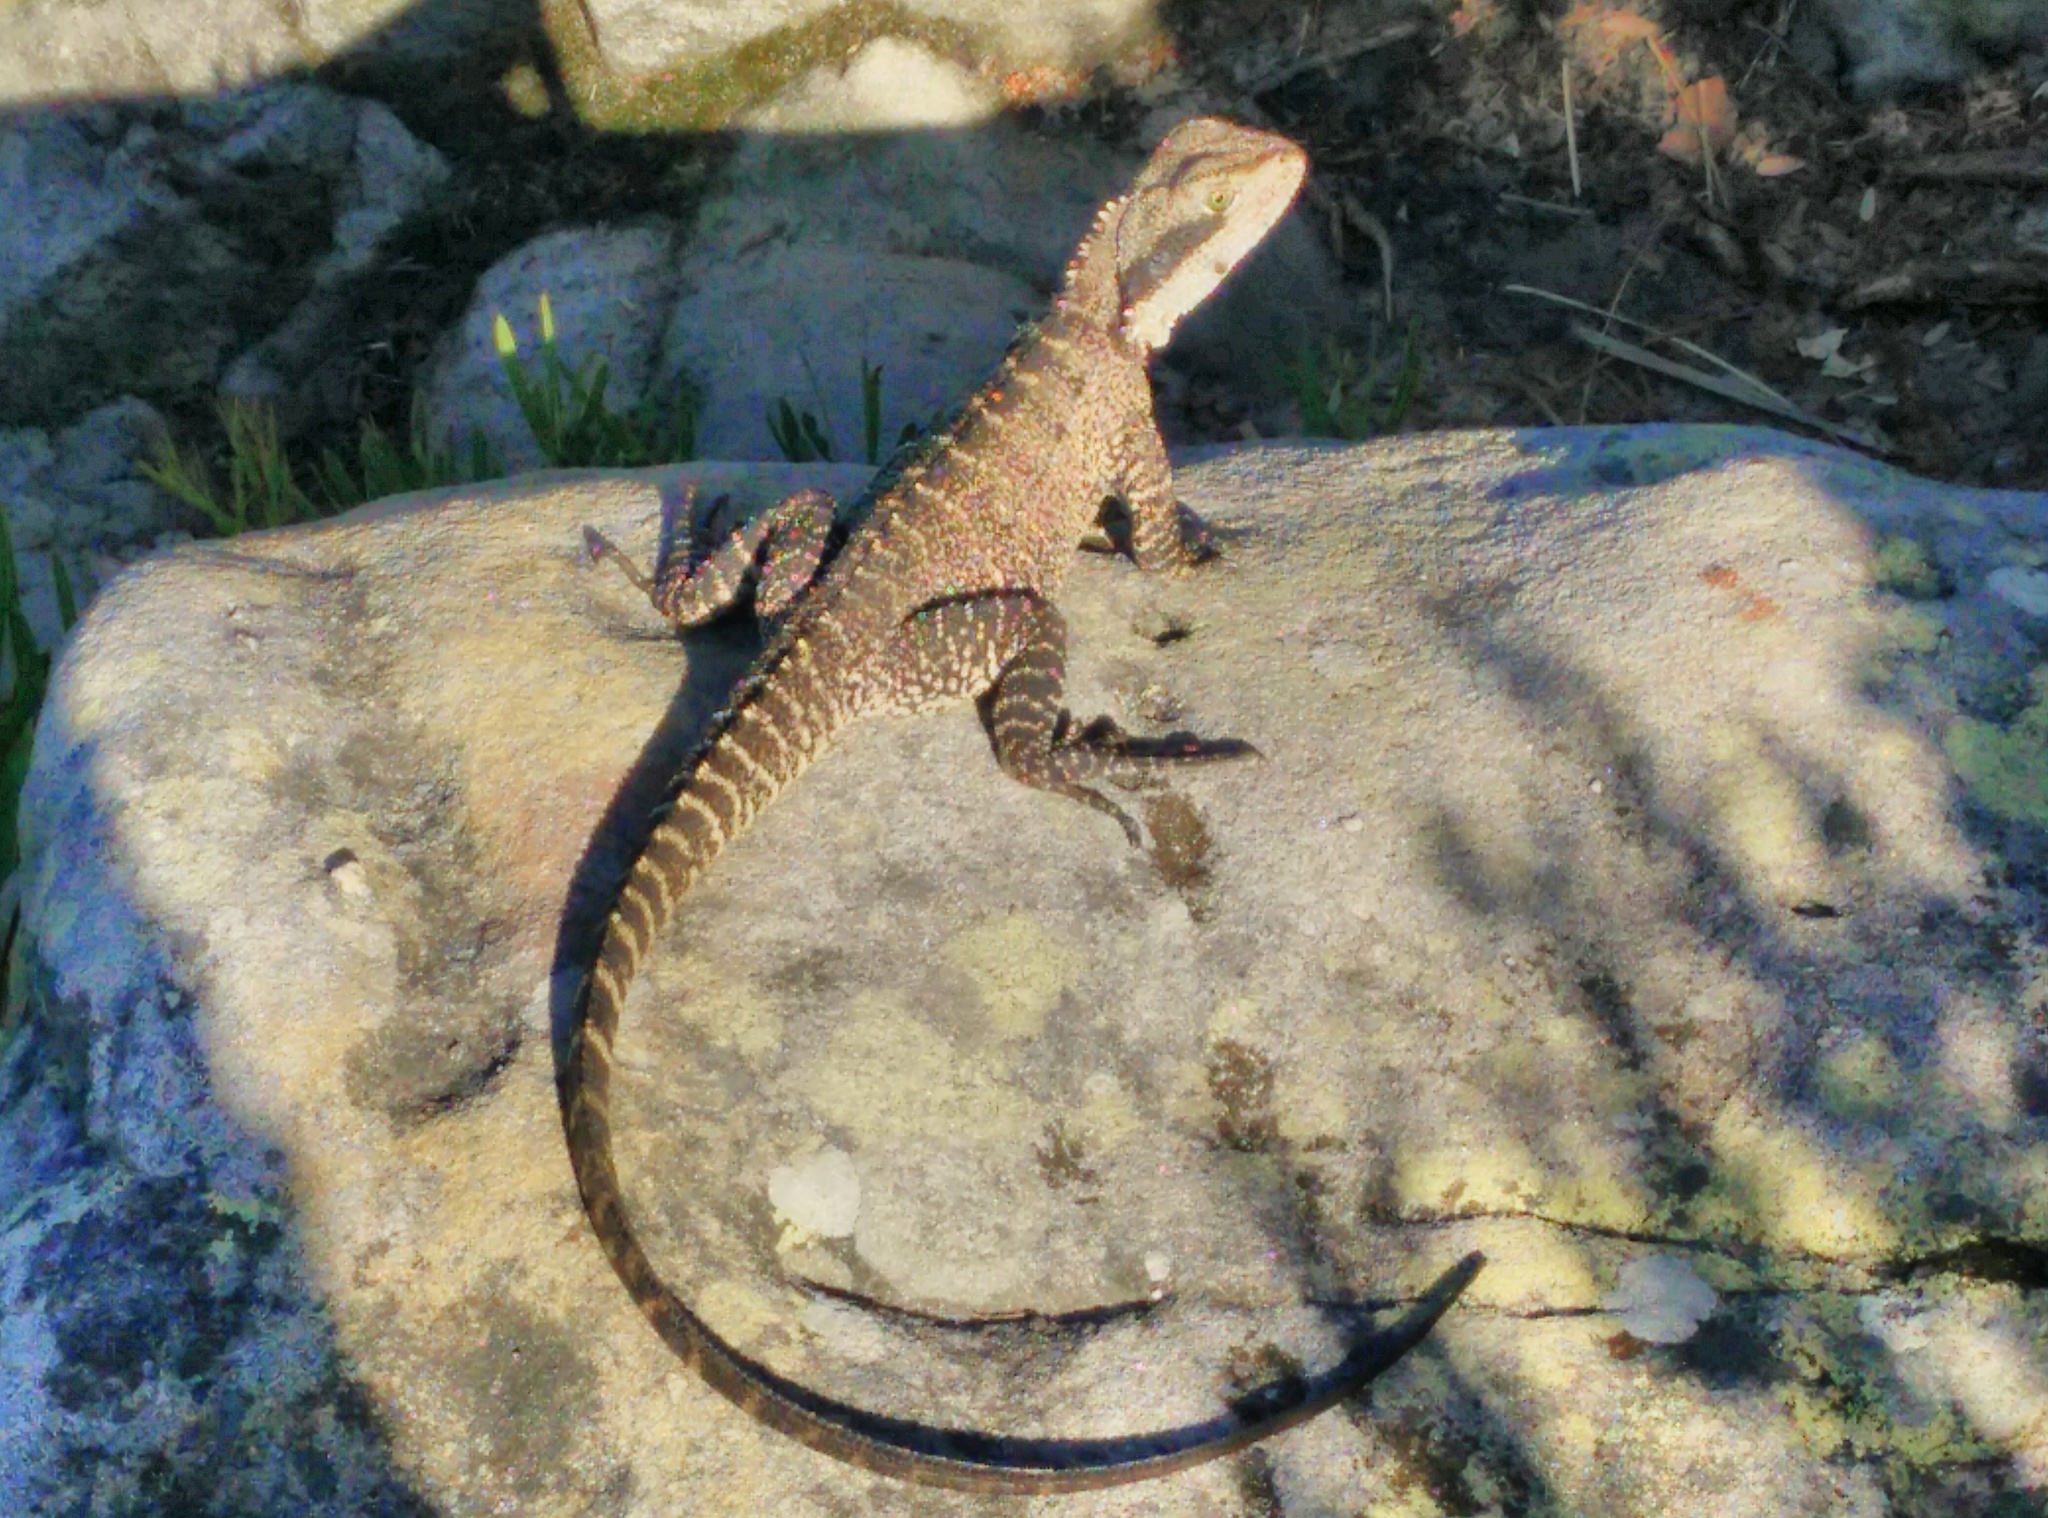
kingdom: Animalia
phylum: Chordata
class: Squamata
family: Agamidae
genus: Intellagama
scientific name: Intellagama lesueurii
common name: Eastern water dragon
